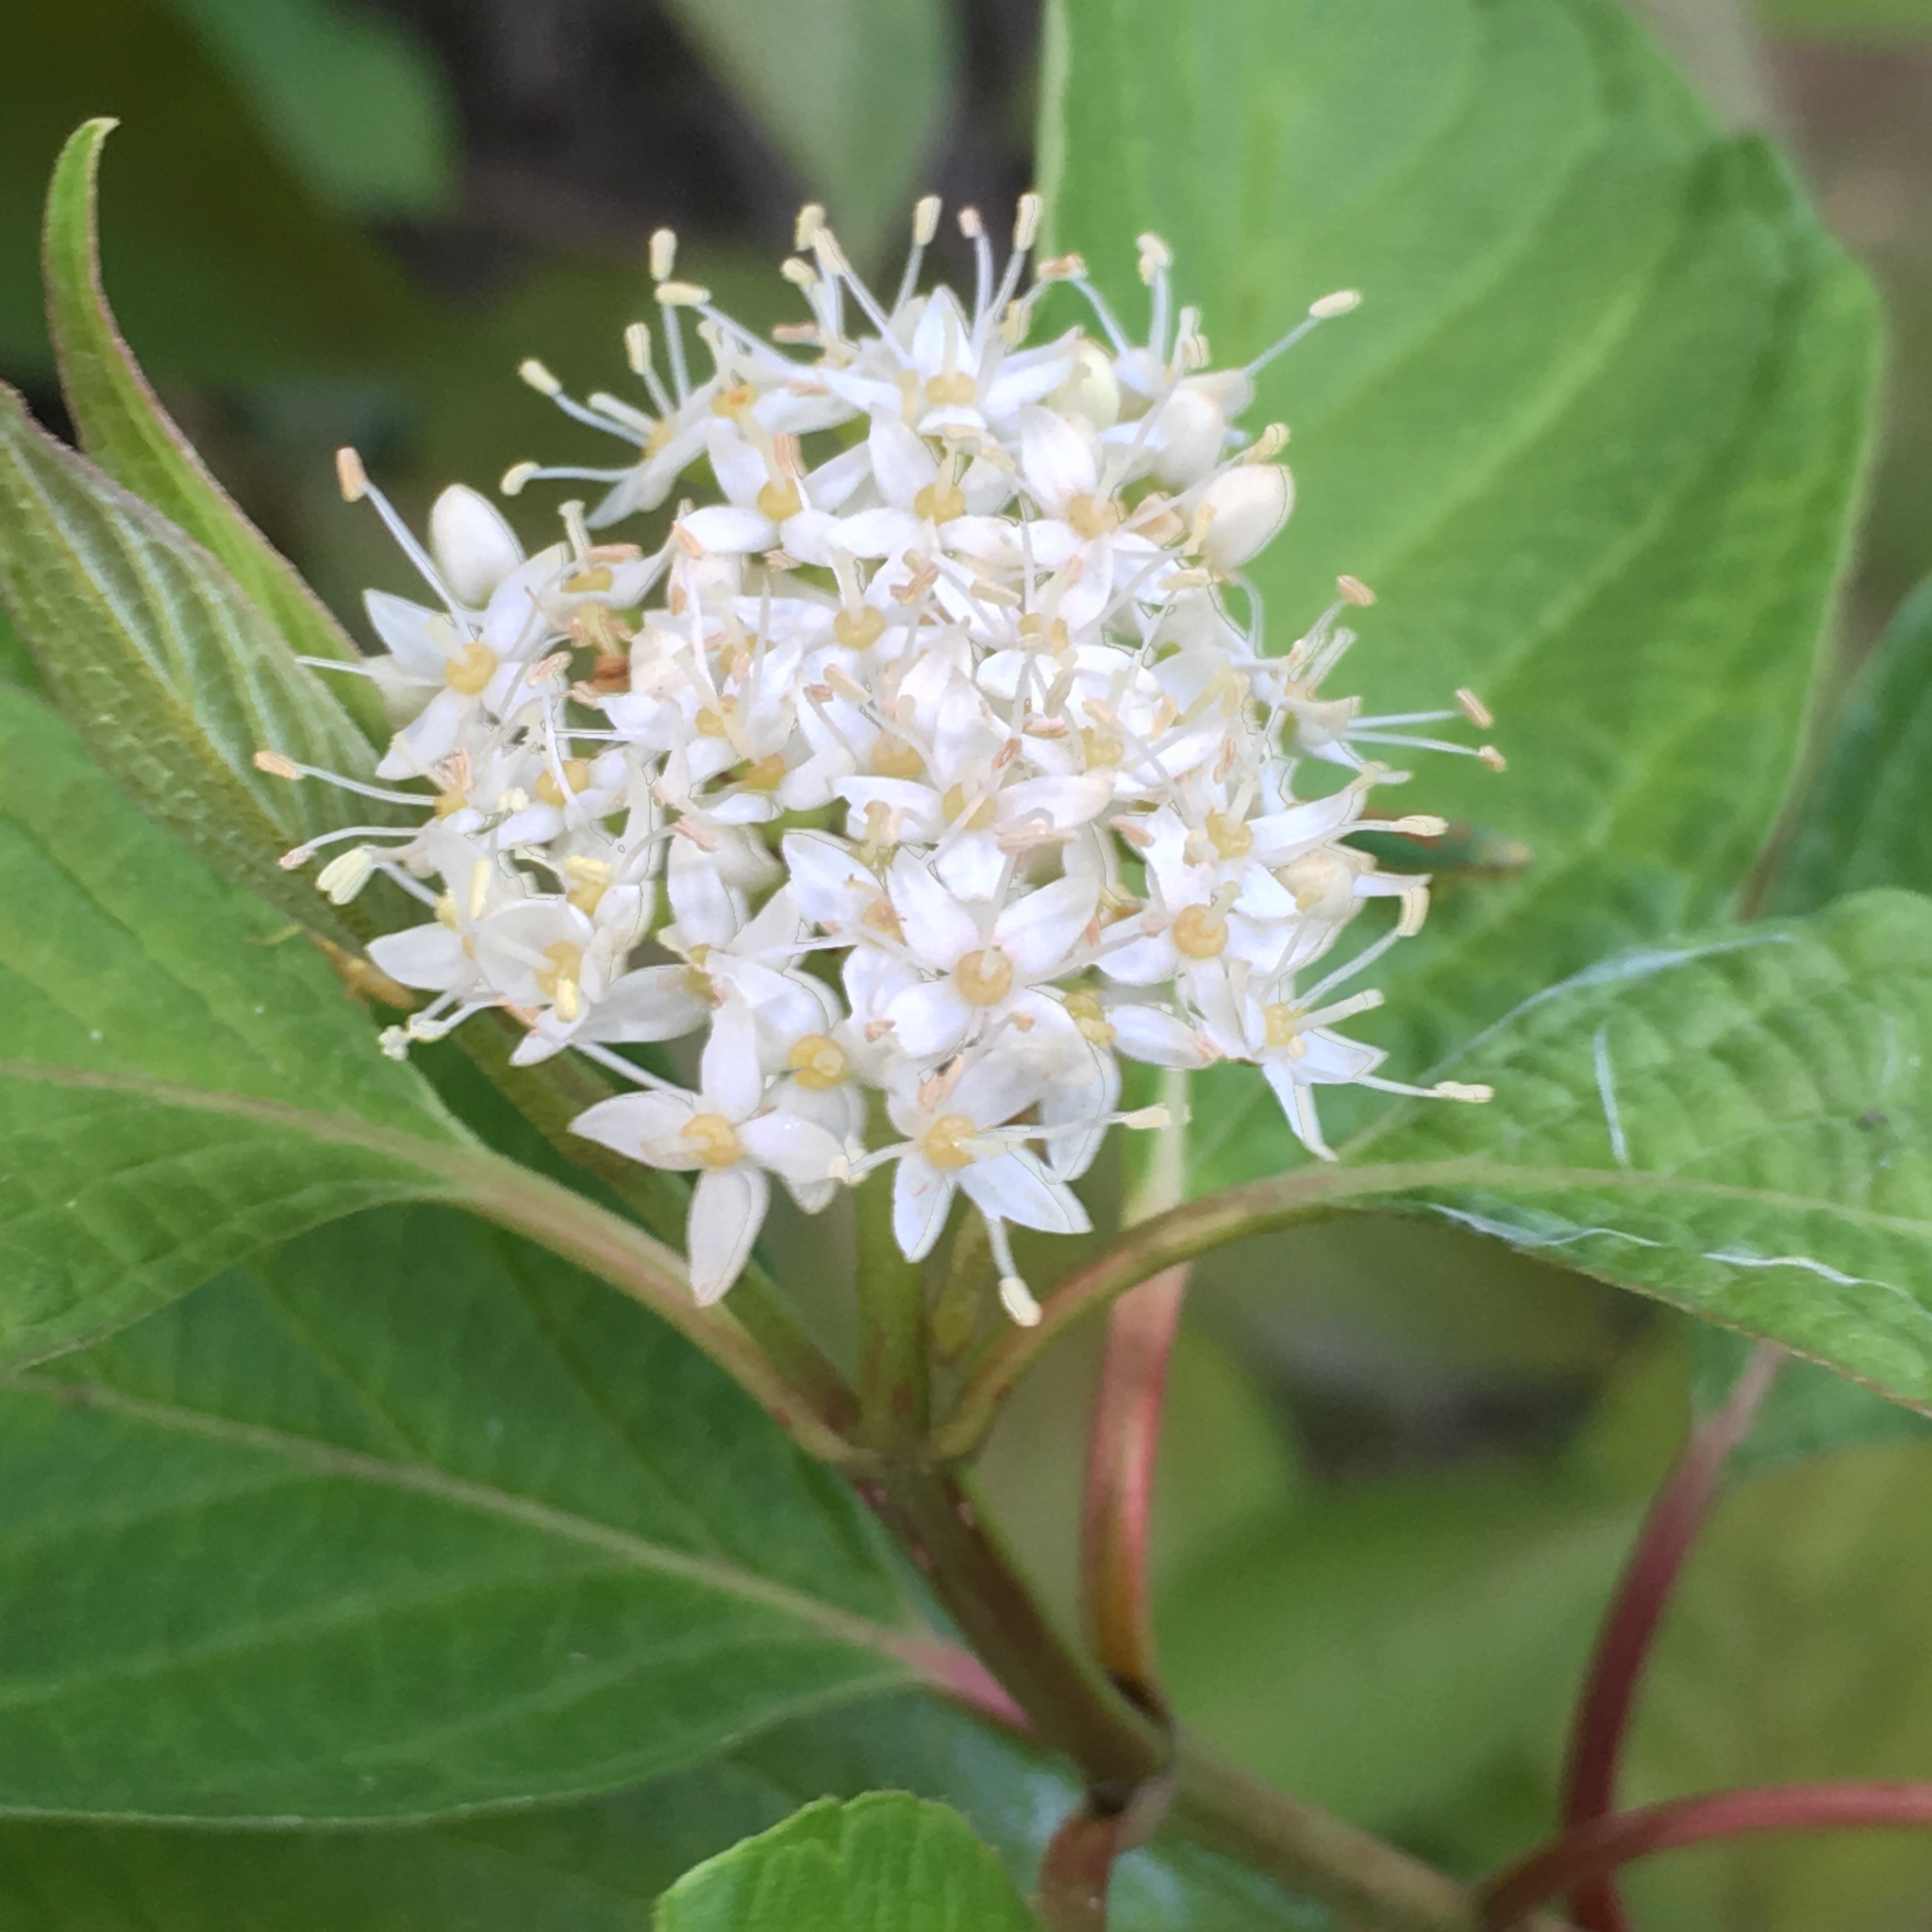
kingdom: Plantae
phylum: Tracheophyta
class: Magnoliopsida
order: Cornales
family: Cornaceae
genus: Cornus
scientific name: Cornus sericea
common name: Red-osier dogwood
